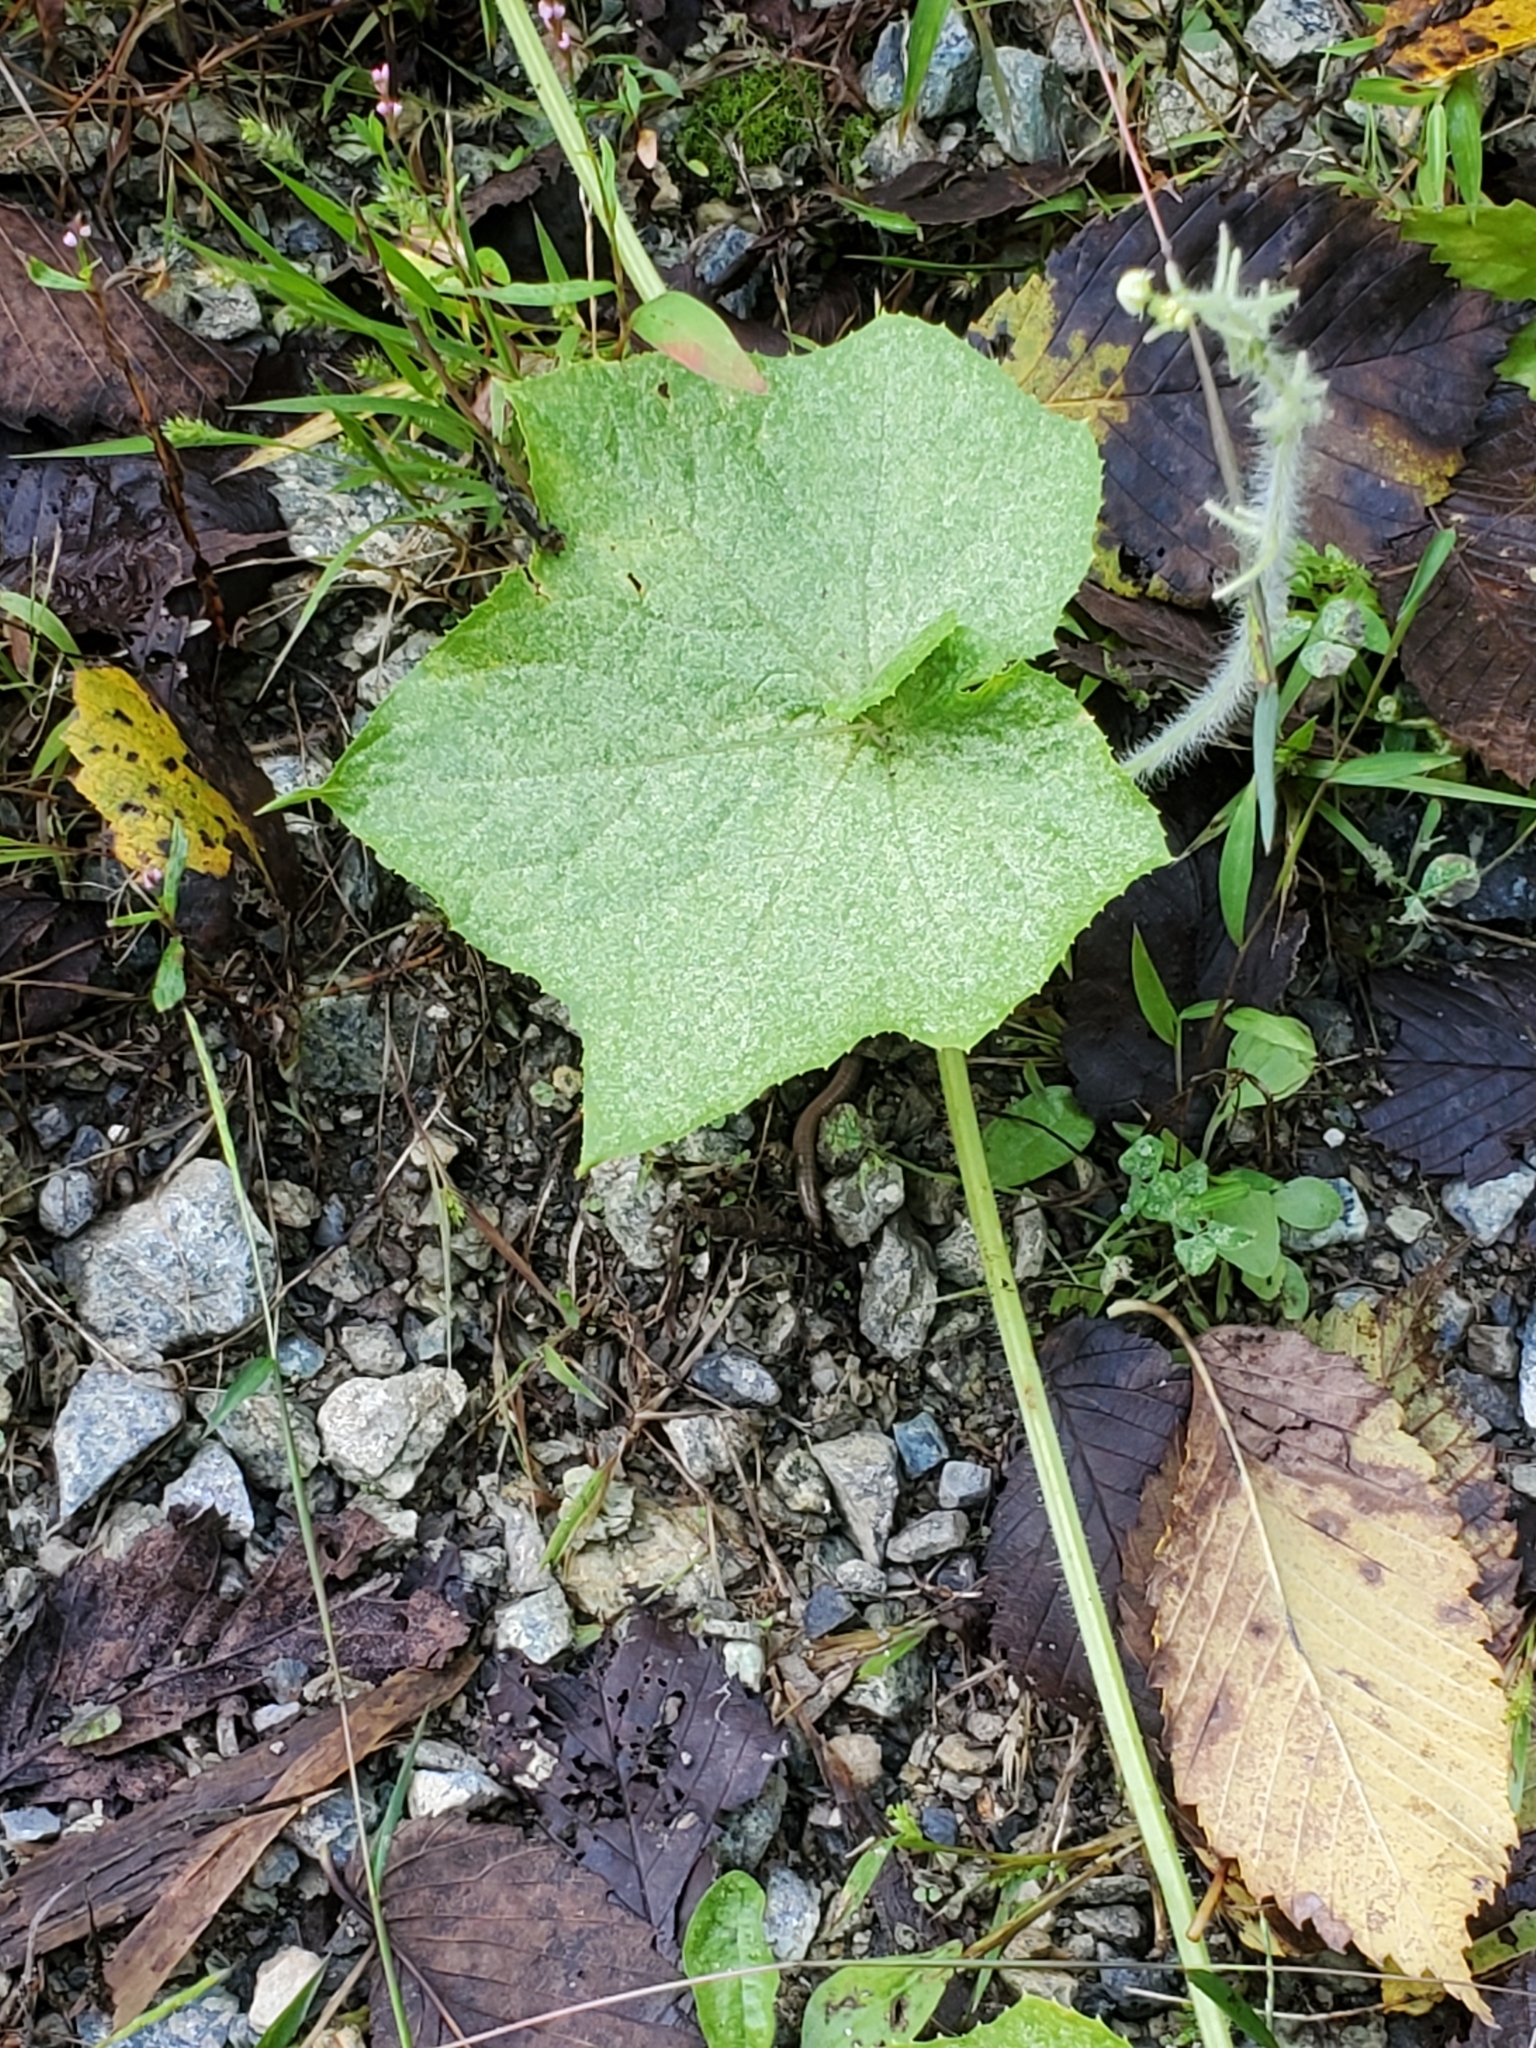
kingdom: Plantae
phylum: Tracheophyta
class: Magnoliopsida
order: Cucurbitales
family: Cucurbitaceae
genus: Sicyos
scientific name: Sicyos angulatus
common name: Angled burr cucumber
